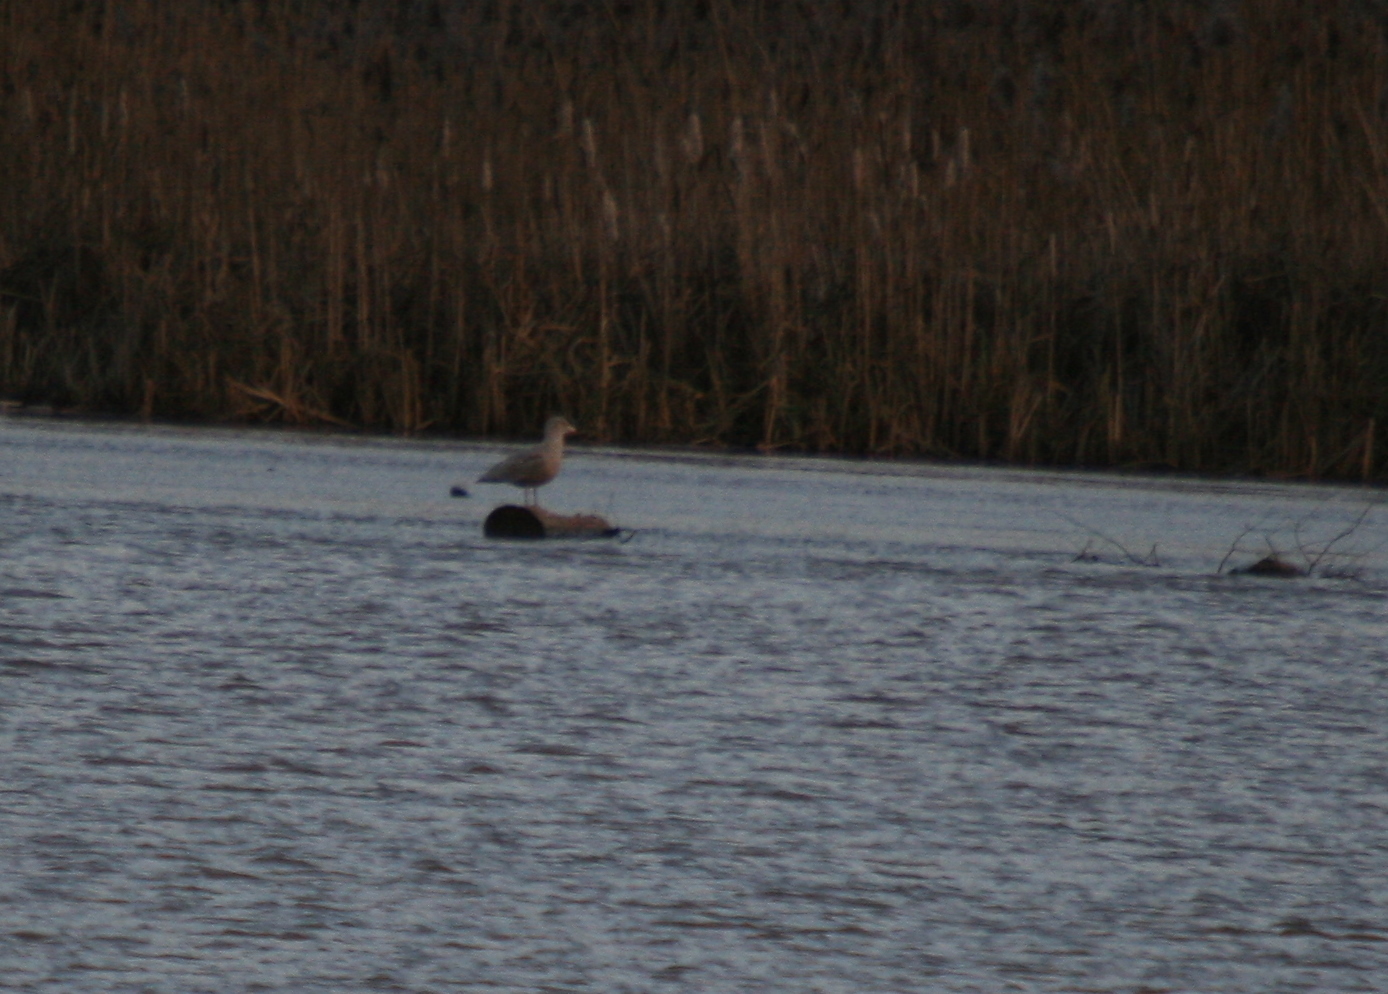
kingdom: Animalia
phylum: Chordata
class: Aves
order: Charadriiformes
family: Laridae
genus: Larus
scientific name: Larus hyperboreus
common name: Glaucous gull
